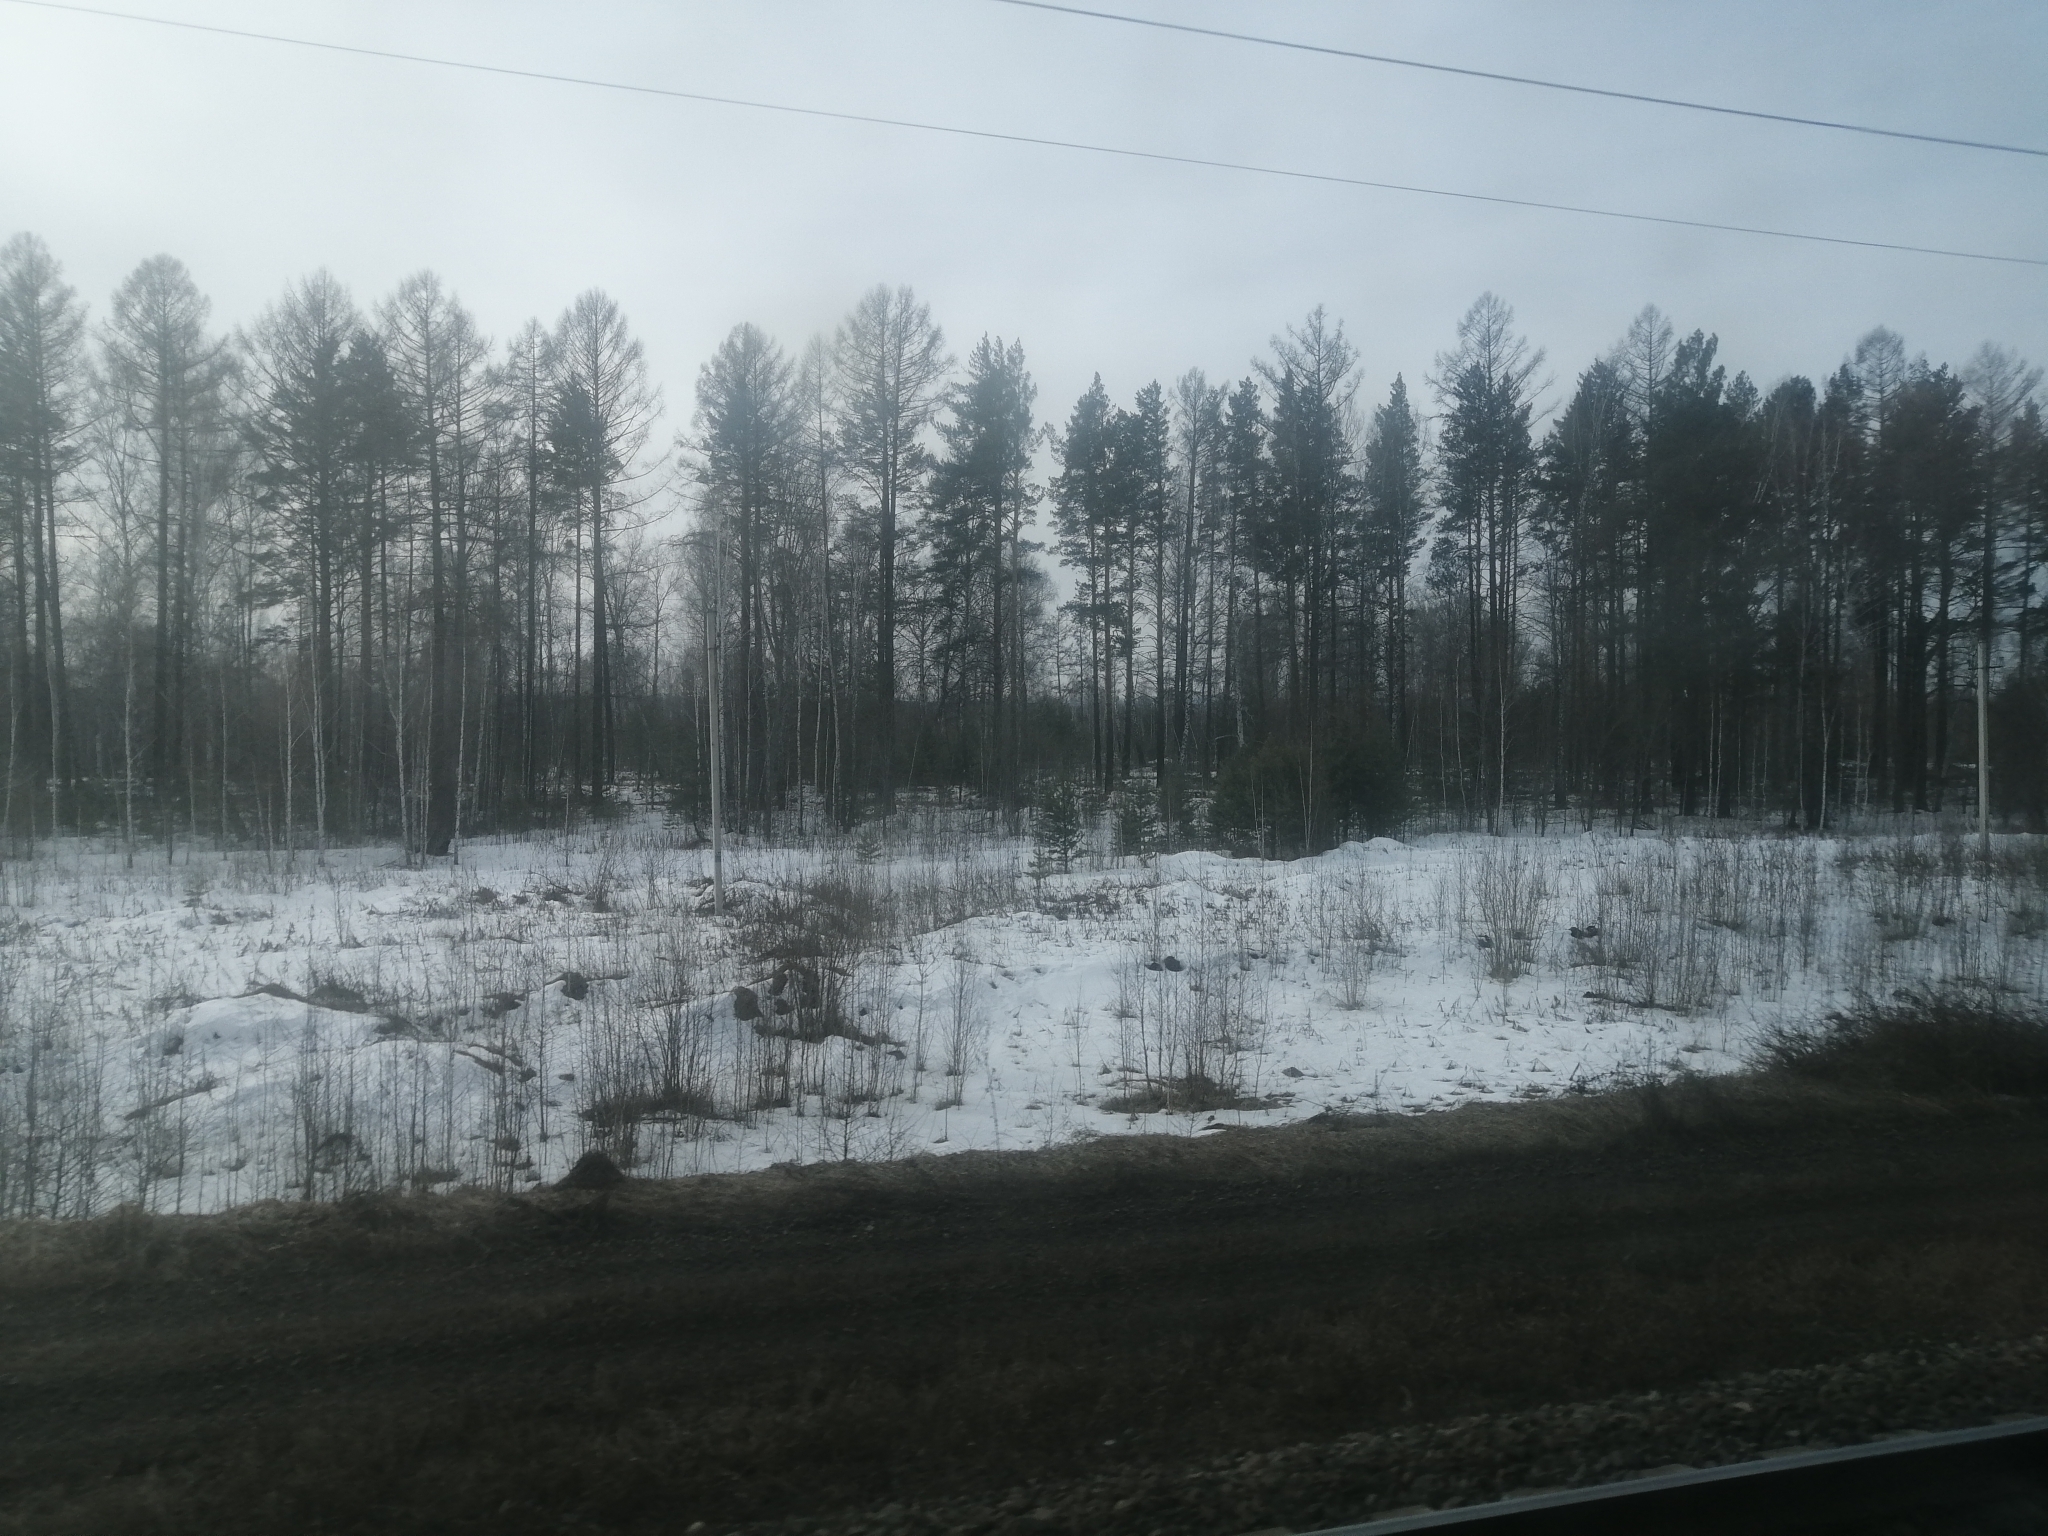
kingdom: Plantae
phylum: Tracheophyta
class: Pinopsida
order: Pinales
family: Pinaceae
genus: Larix
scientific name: Larix sibirica
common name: Siberian larch
